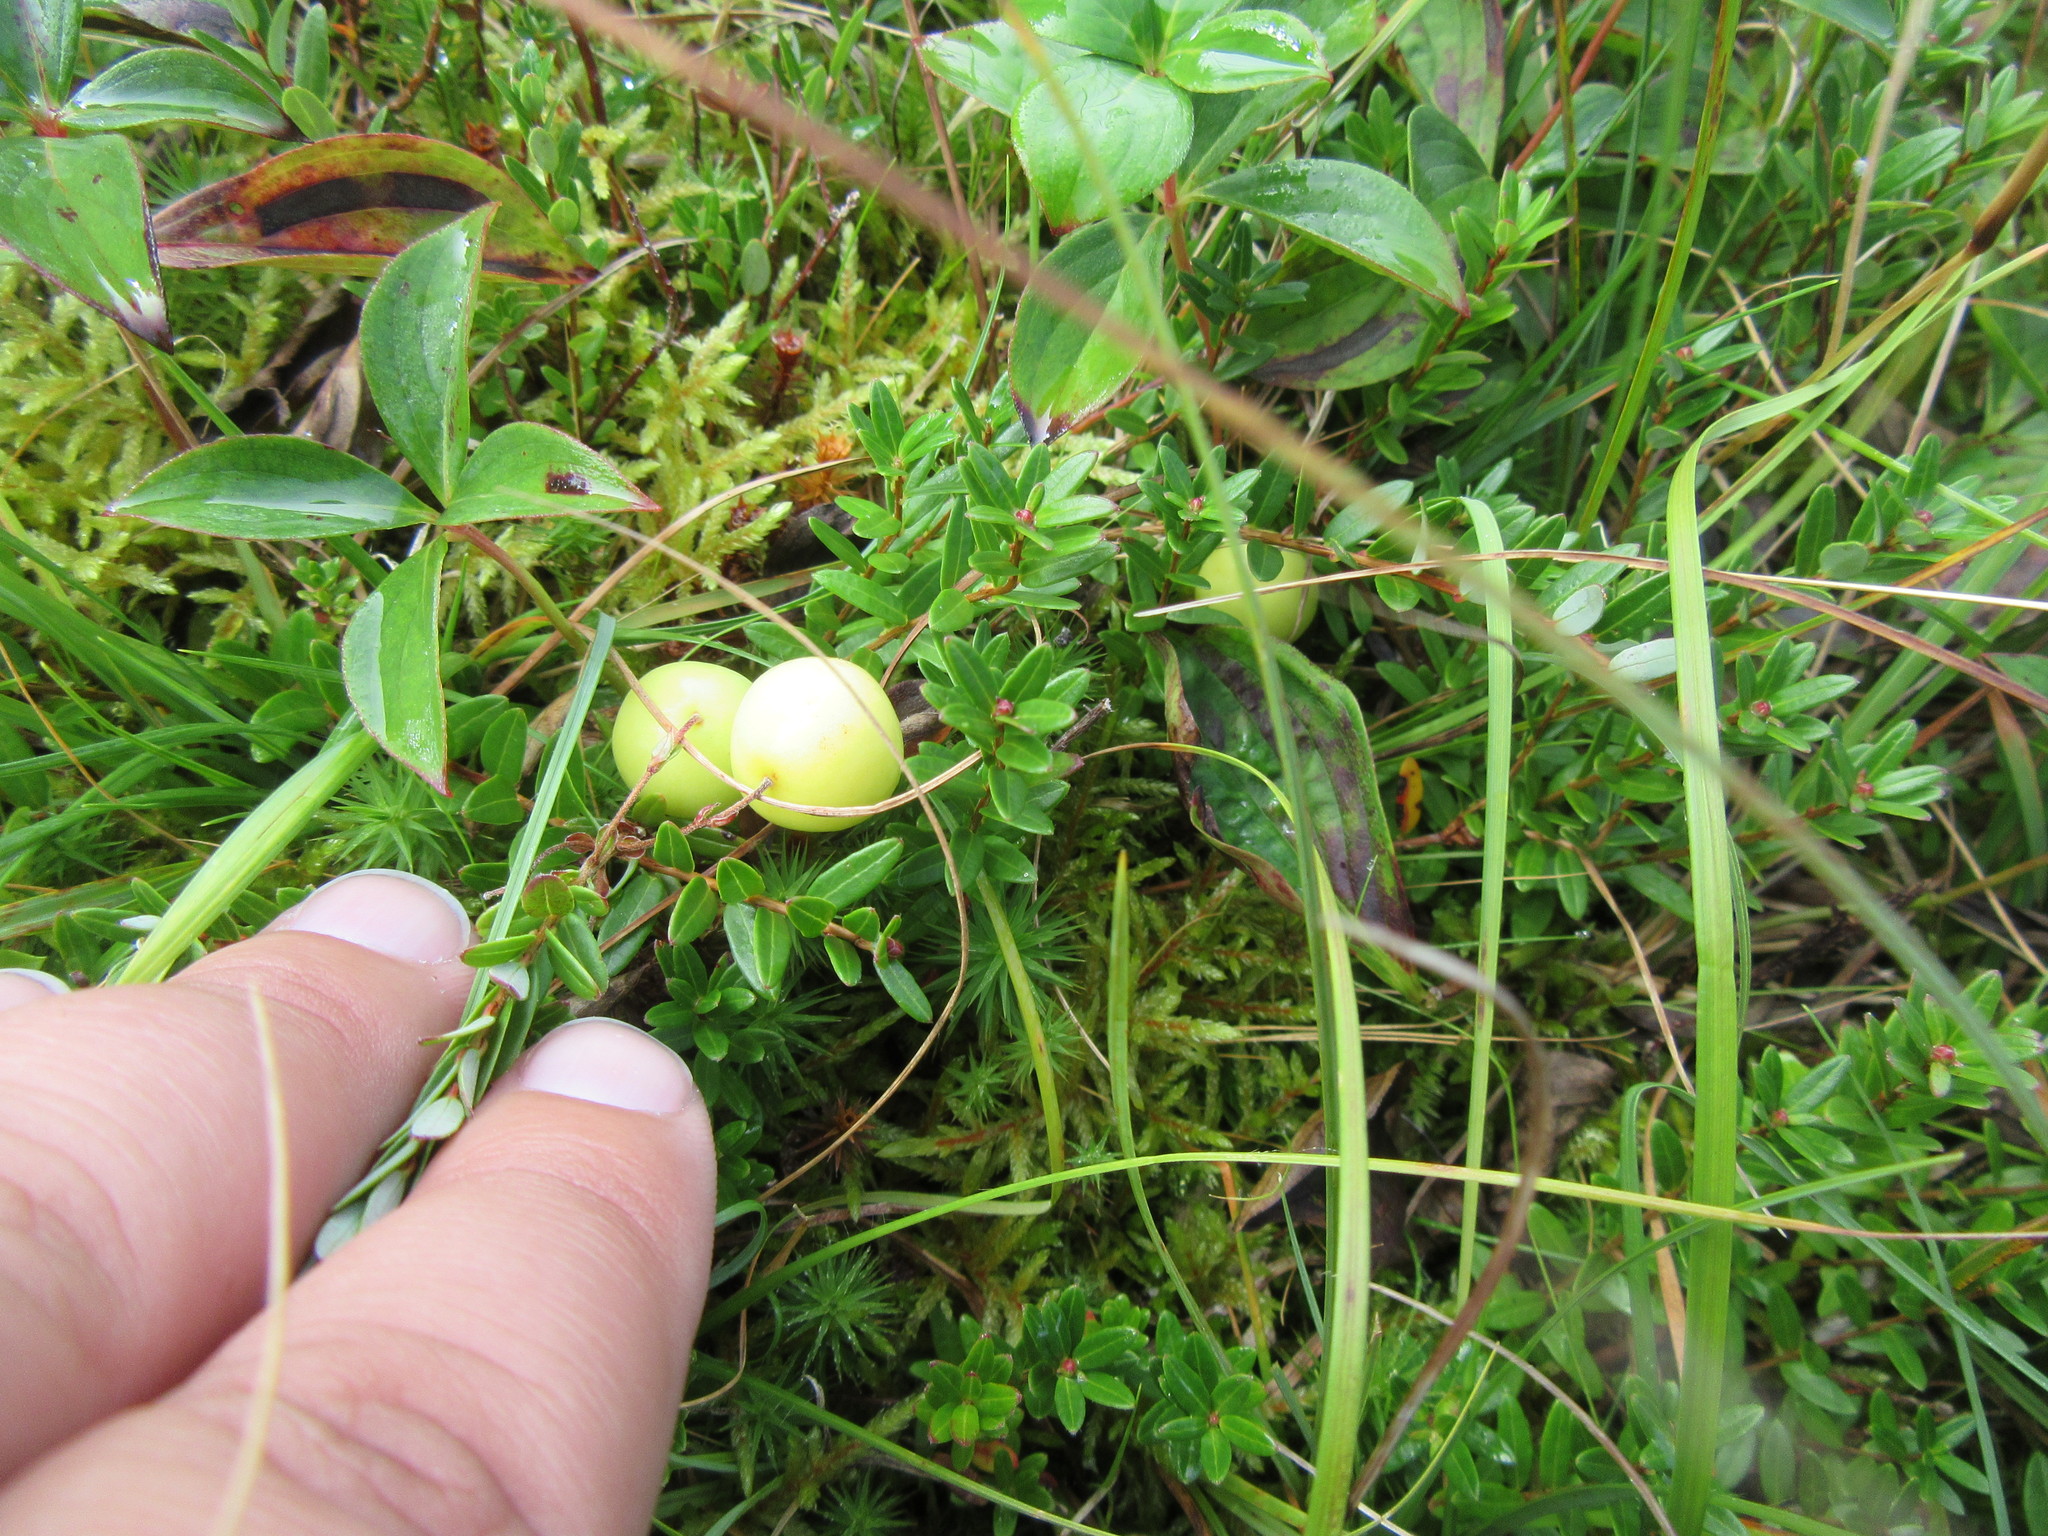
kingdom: Plantae
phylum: Tracheophyta
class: Magnoliopsida
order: Ericales
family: Ericaceae
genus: Vaccinium
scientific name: Vaccinium macrocarpon
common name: American cranberry
